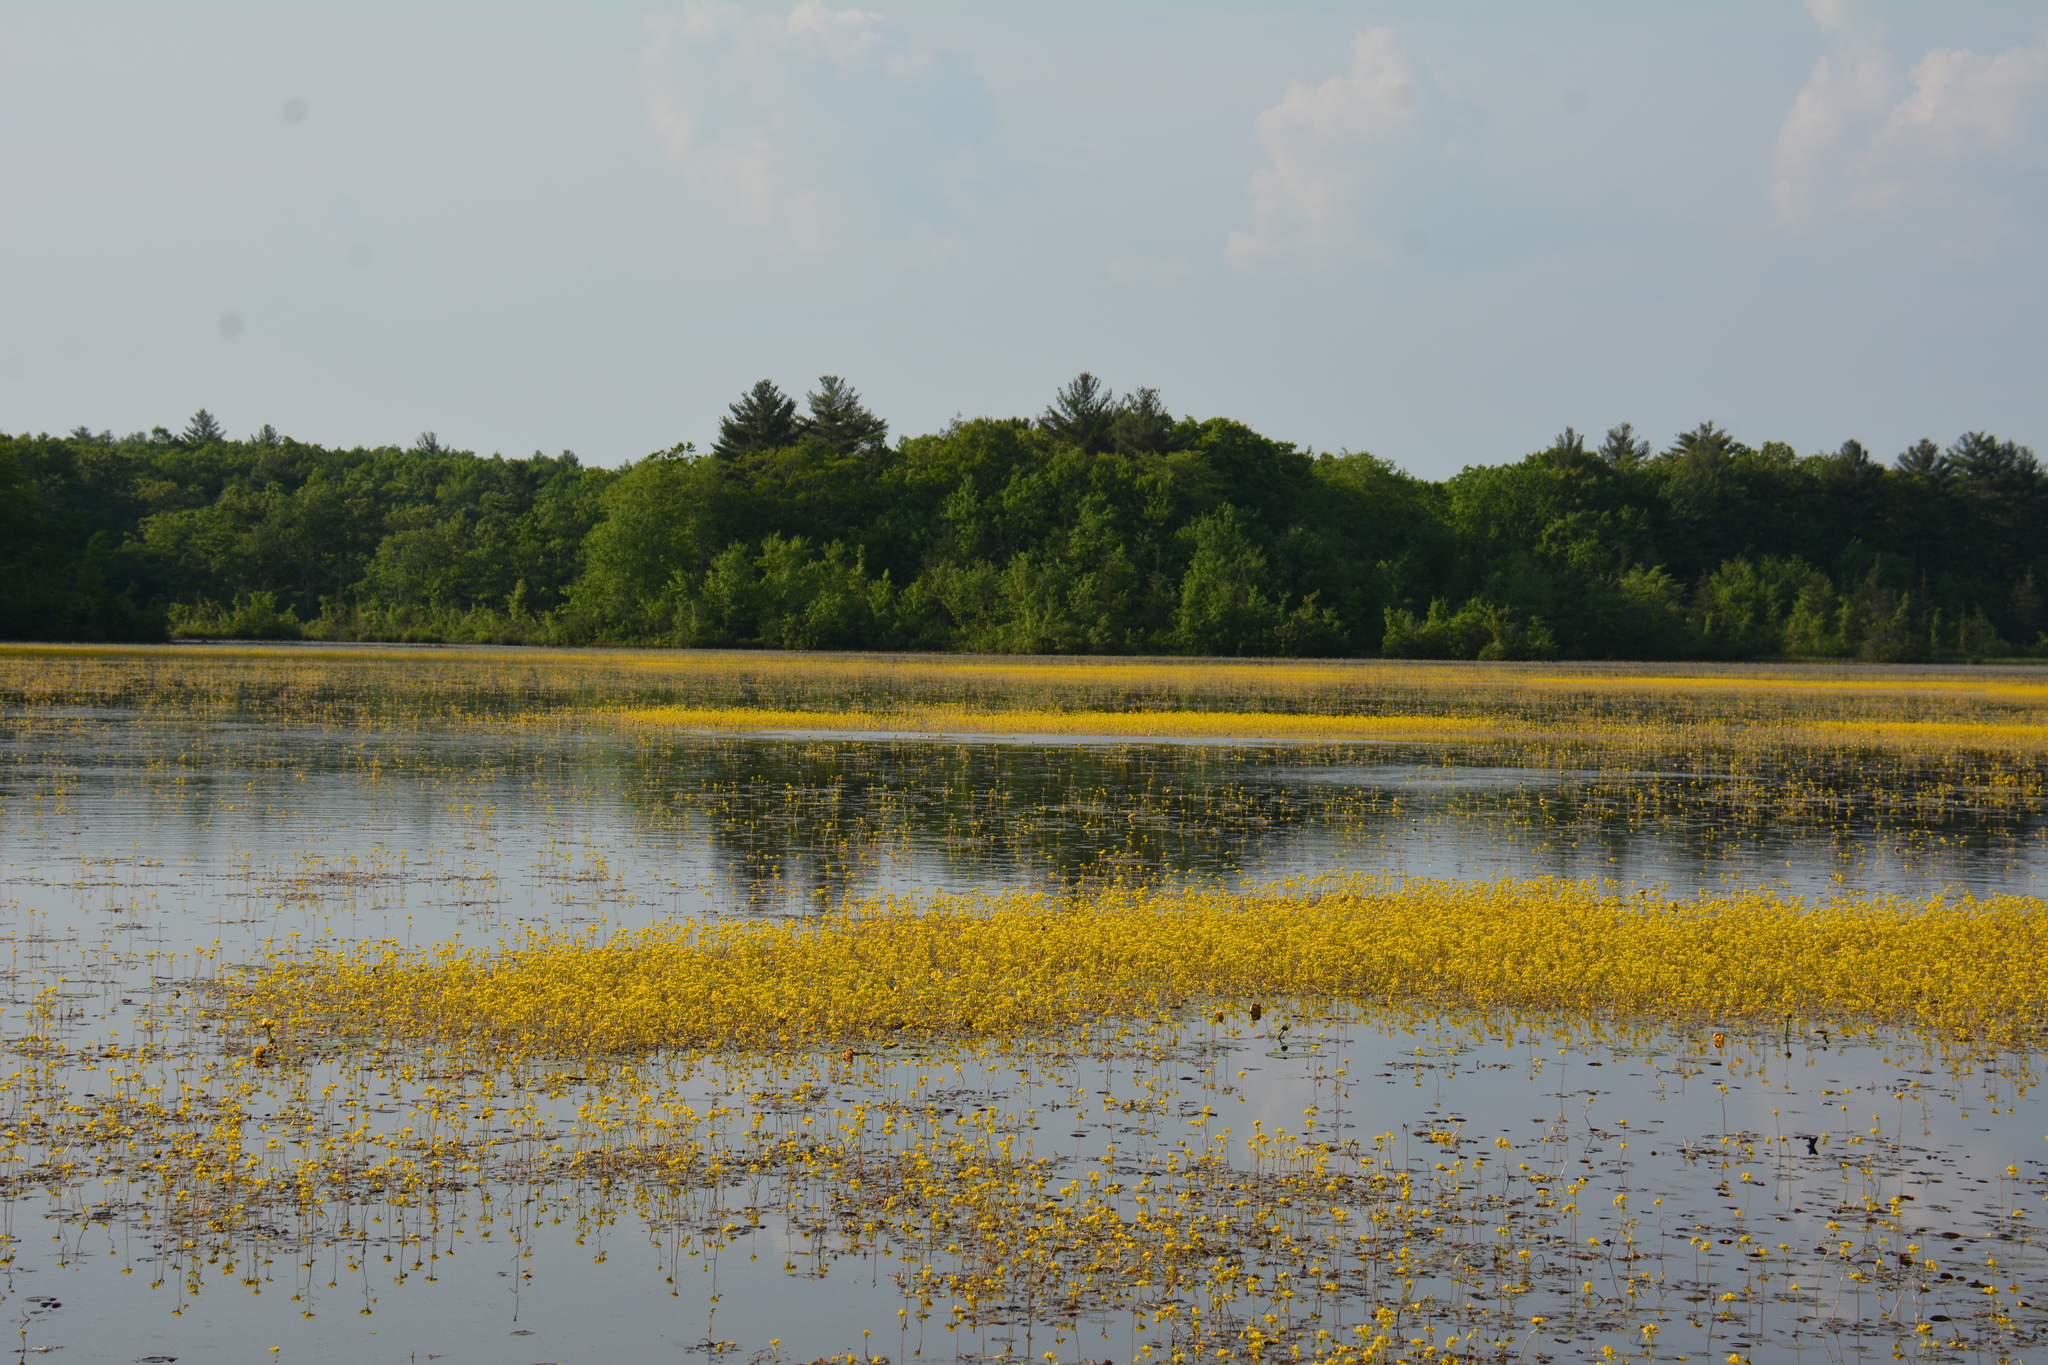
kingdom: Plantae
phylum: Tracheophyta
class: Magnoliopsida
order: Lamiales
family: Lentibulariaceae
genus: Utricularia
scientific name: Utricularia inflata
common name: Floating bladderwort
